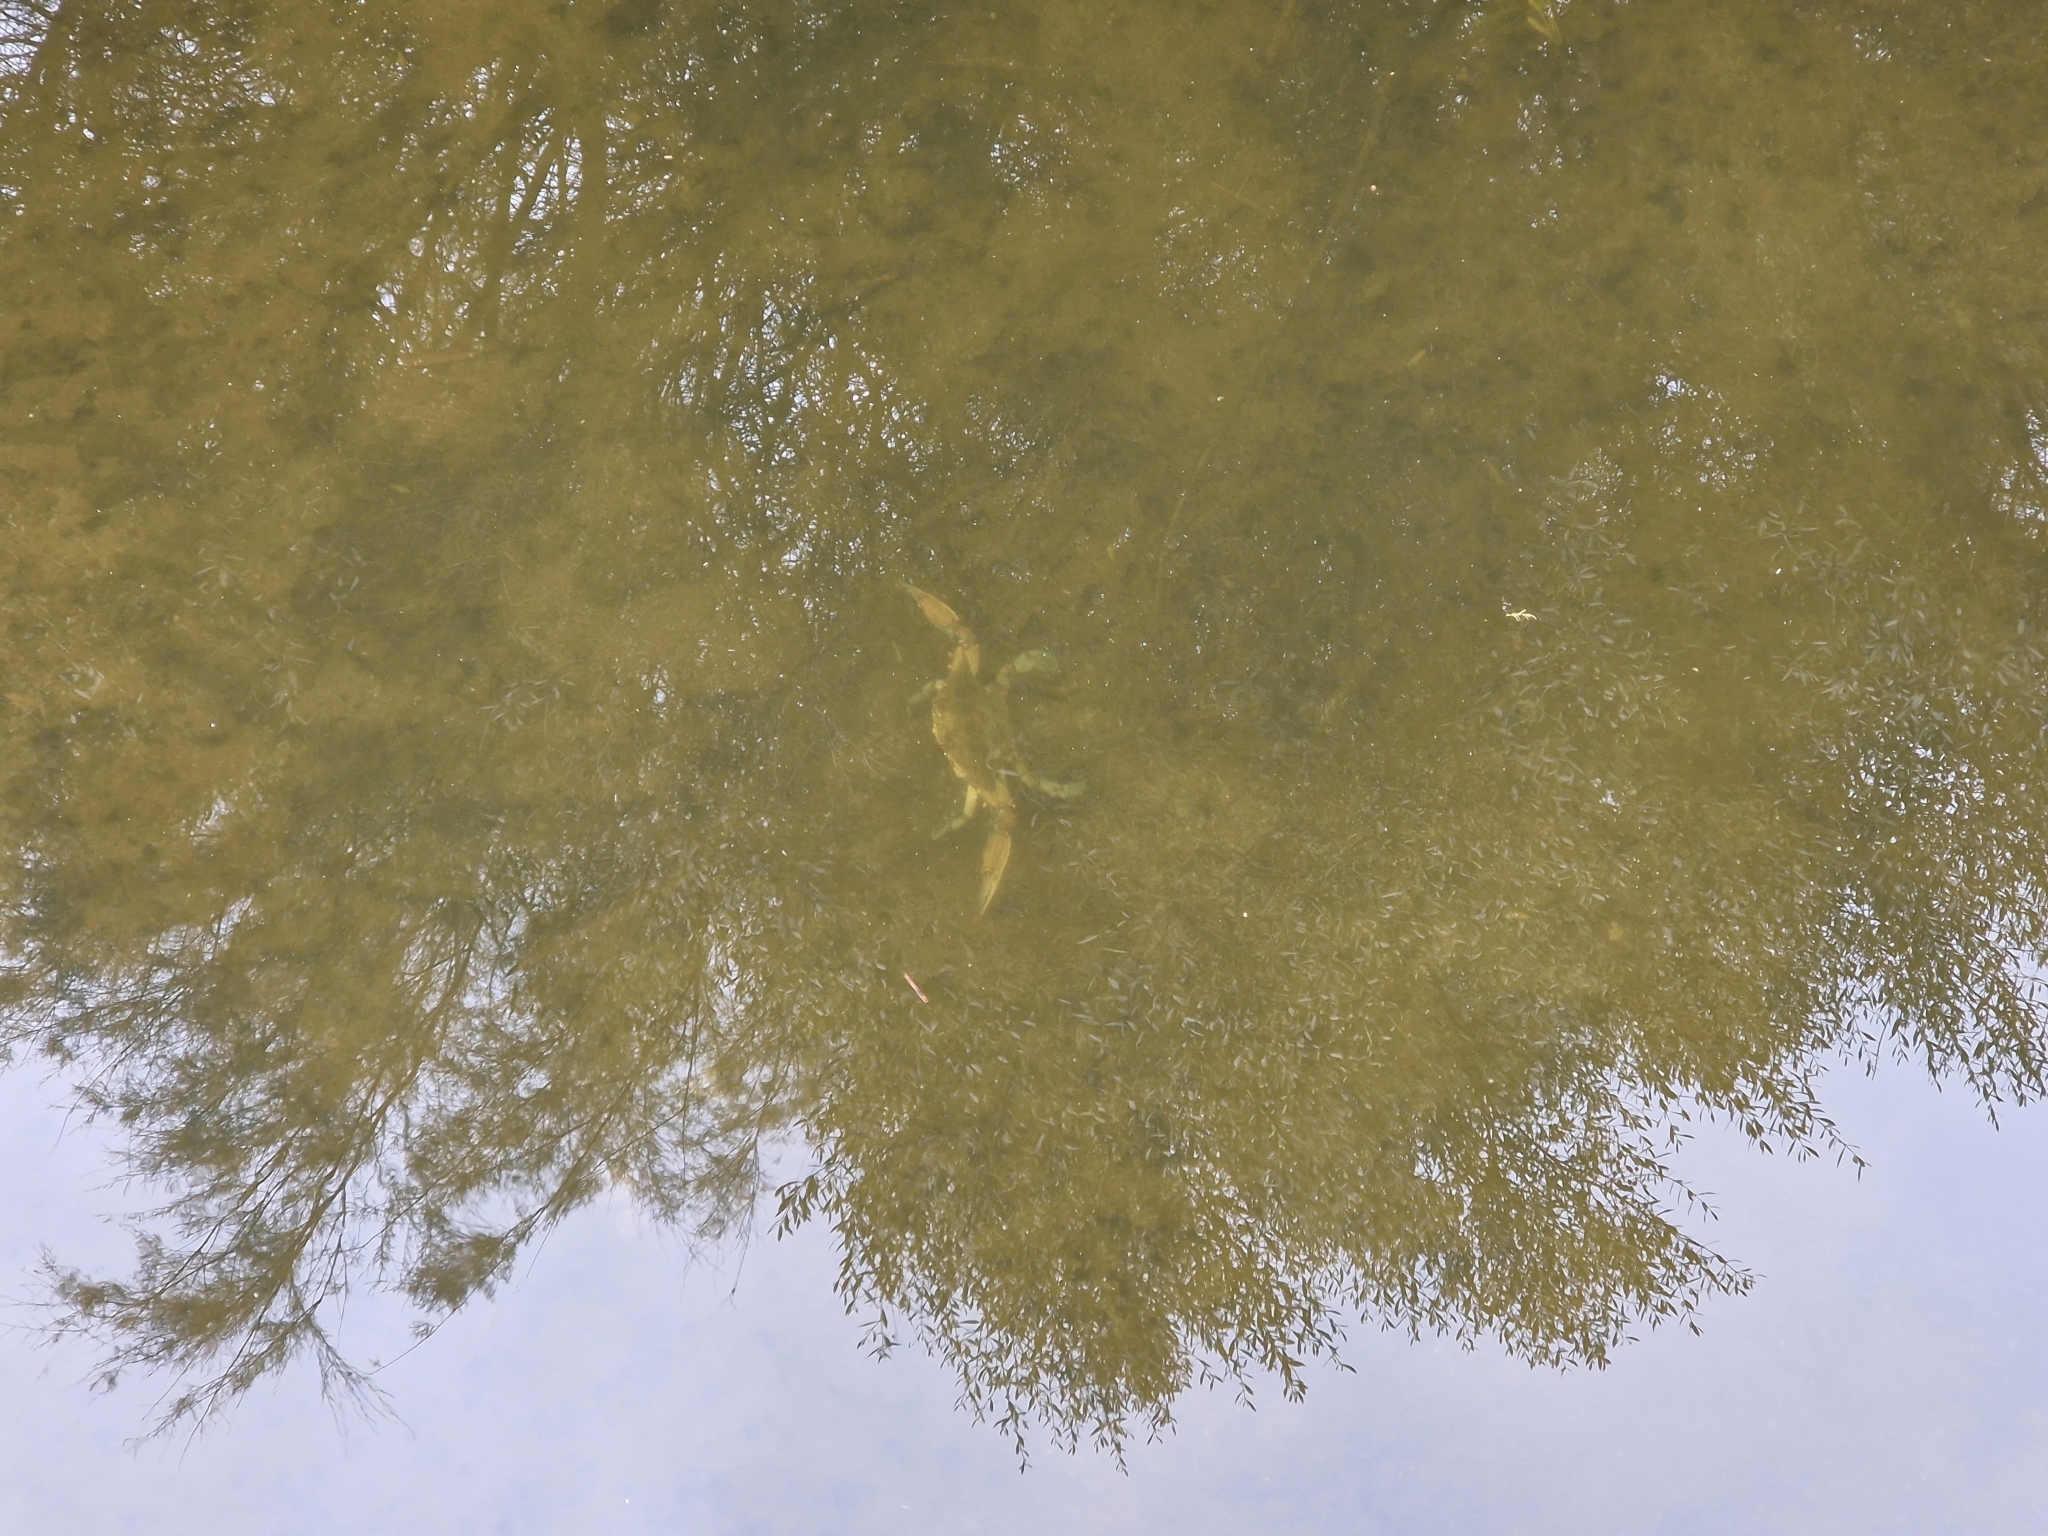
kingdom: Animalia
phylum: Arthropoda
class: Malacostraca
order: Decapoda
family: Portunidae
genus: Callinectes
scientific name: Callinectes sapidus
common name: Blue crab
